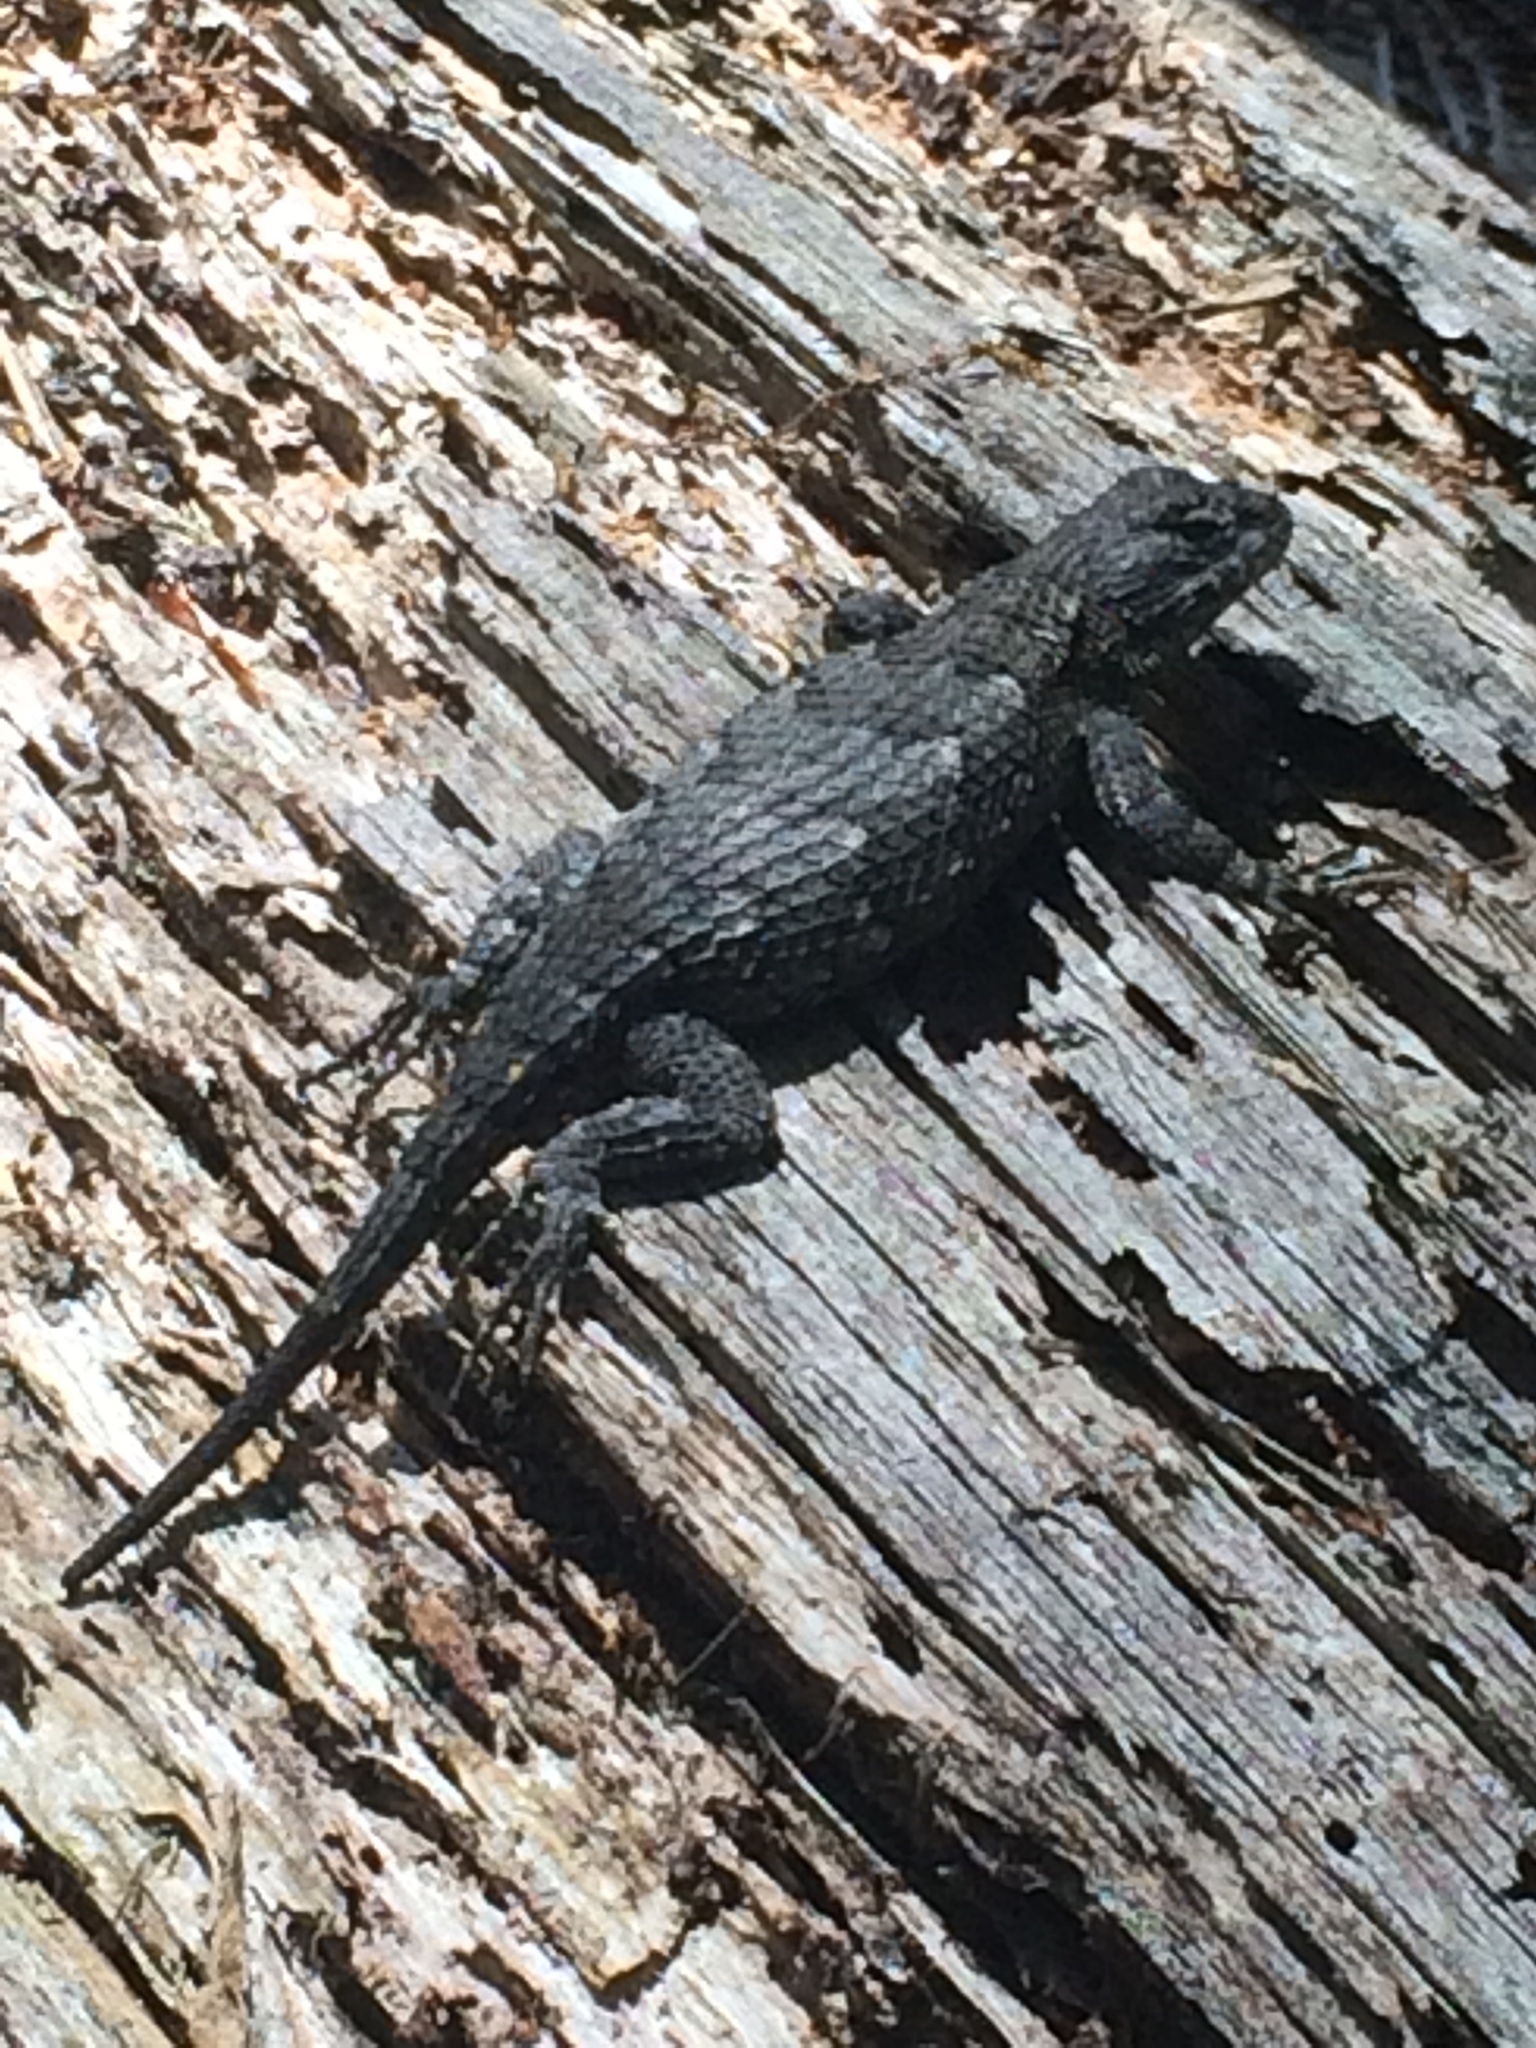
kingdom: Animalia
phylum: Chordata
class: Squamata
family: Phrynosomatidae
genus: Sceloporus
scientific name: Sceloporus undulatus
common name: Eastern fence lizard
